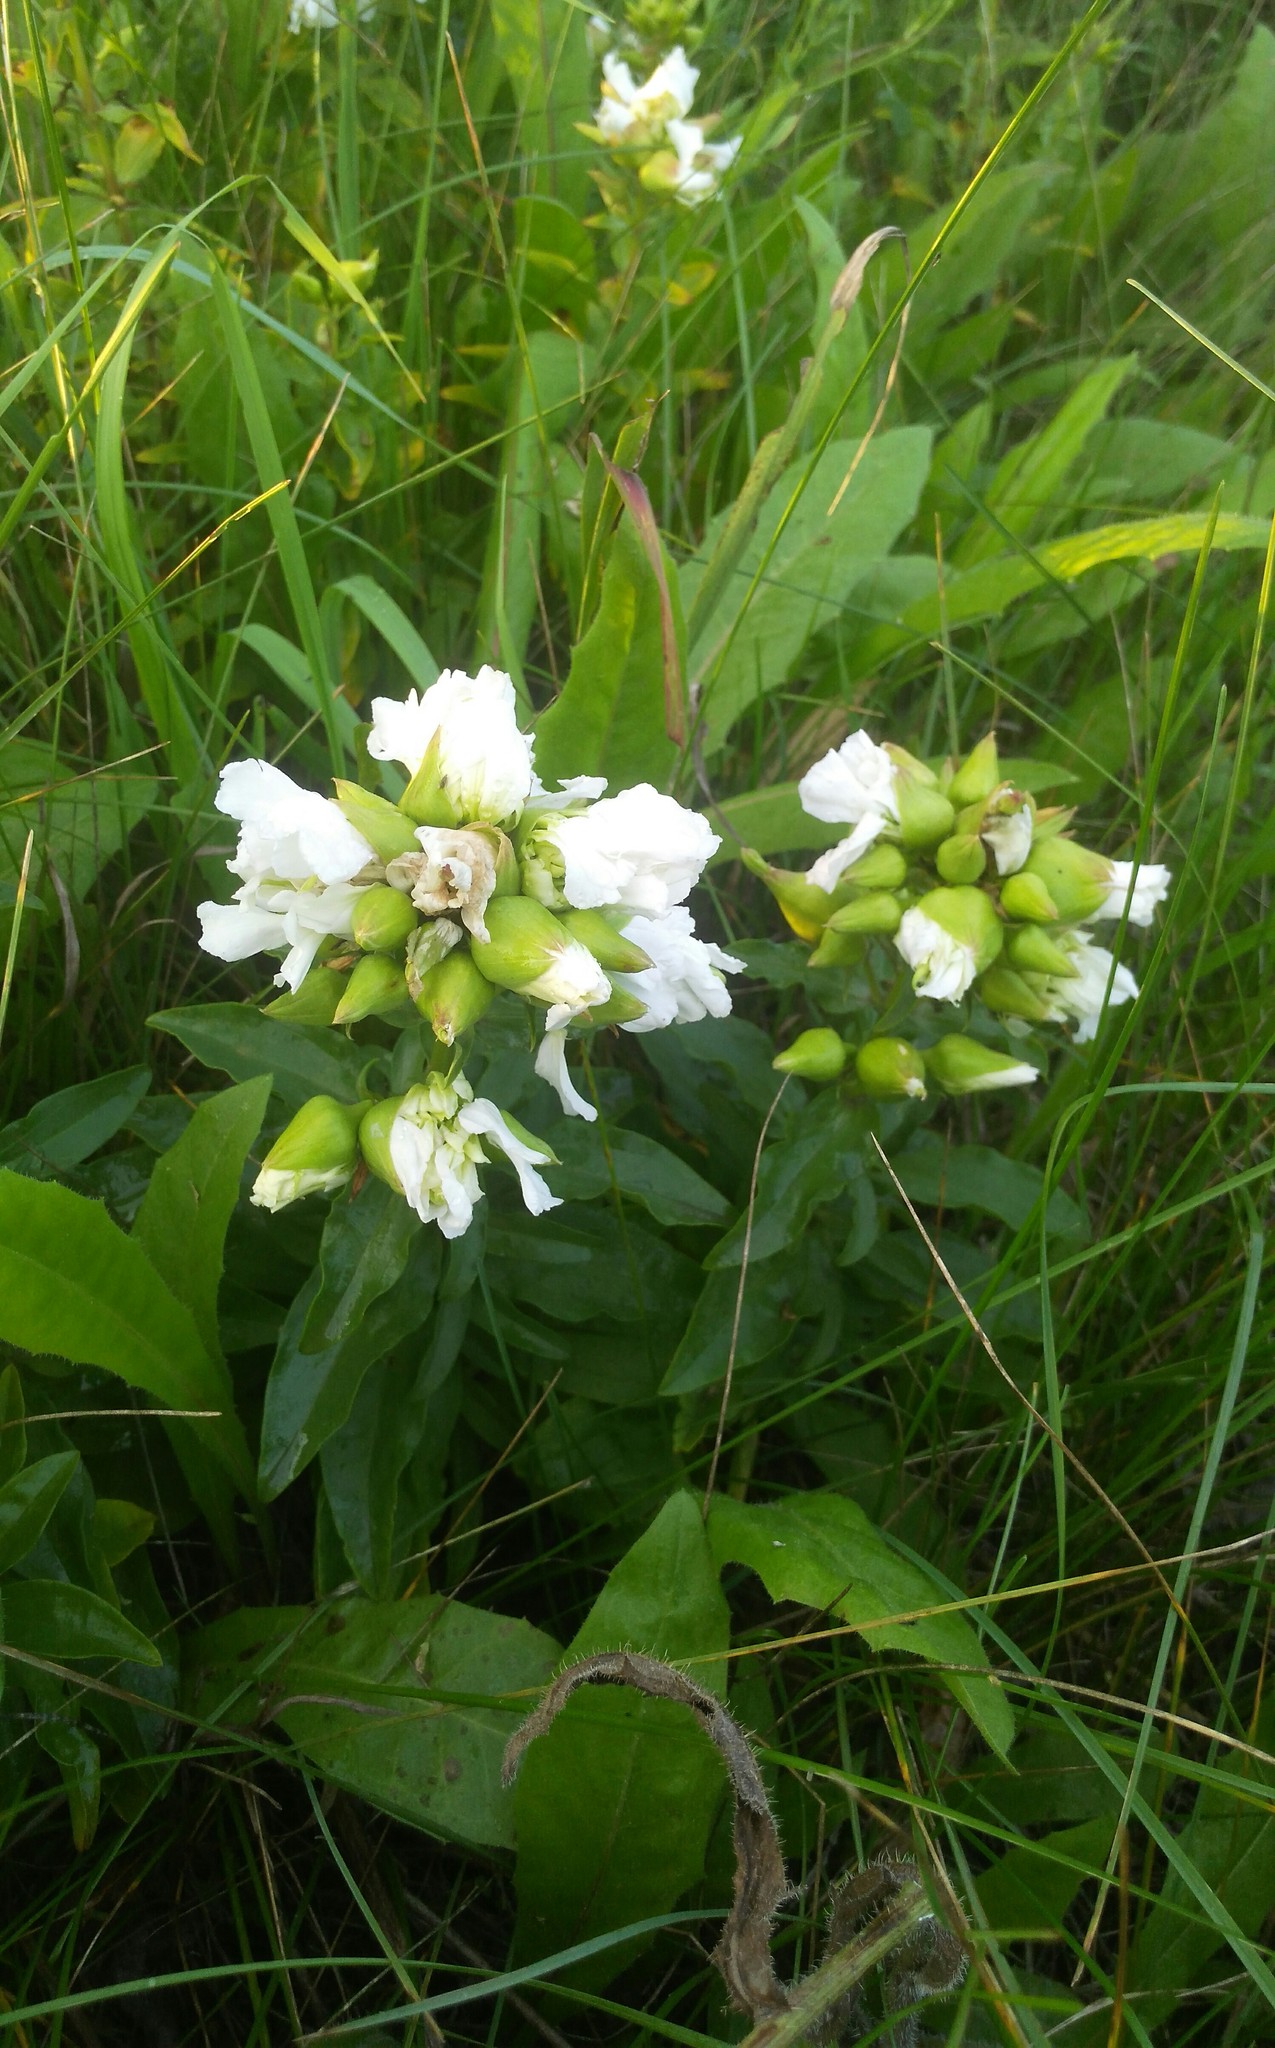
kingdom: Plantae
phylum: Tracheophyta
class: Magnoliopsida
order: Caryophyllales
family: Caryophyllaceae
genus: Saponaria
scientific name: Saponaria officinalis
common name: Soapwort
